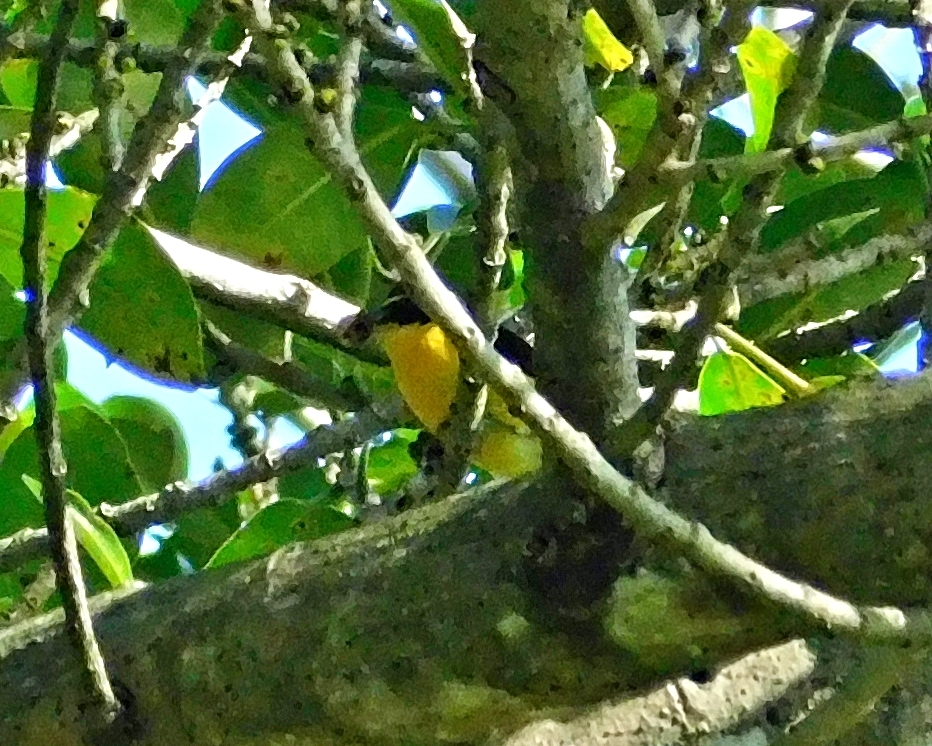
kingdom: Animalia
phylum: Chordata
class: Aves
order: Passeriformes
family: Fringillidae
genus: Euphonia
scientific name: Euphonia hirundinacea
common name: Yellow-throated euphonia
